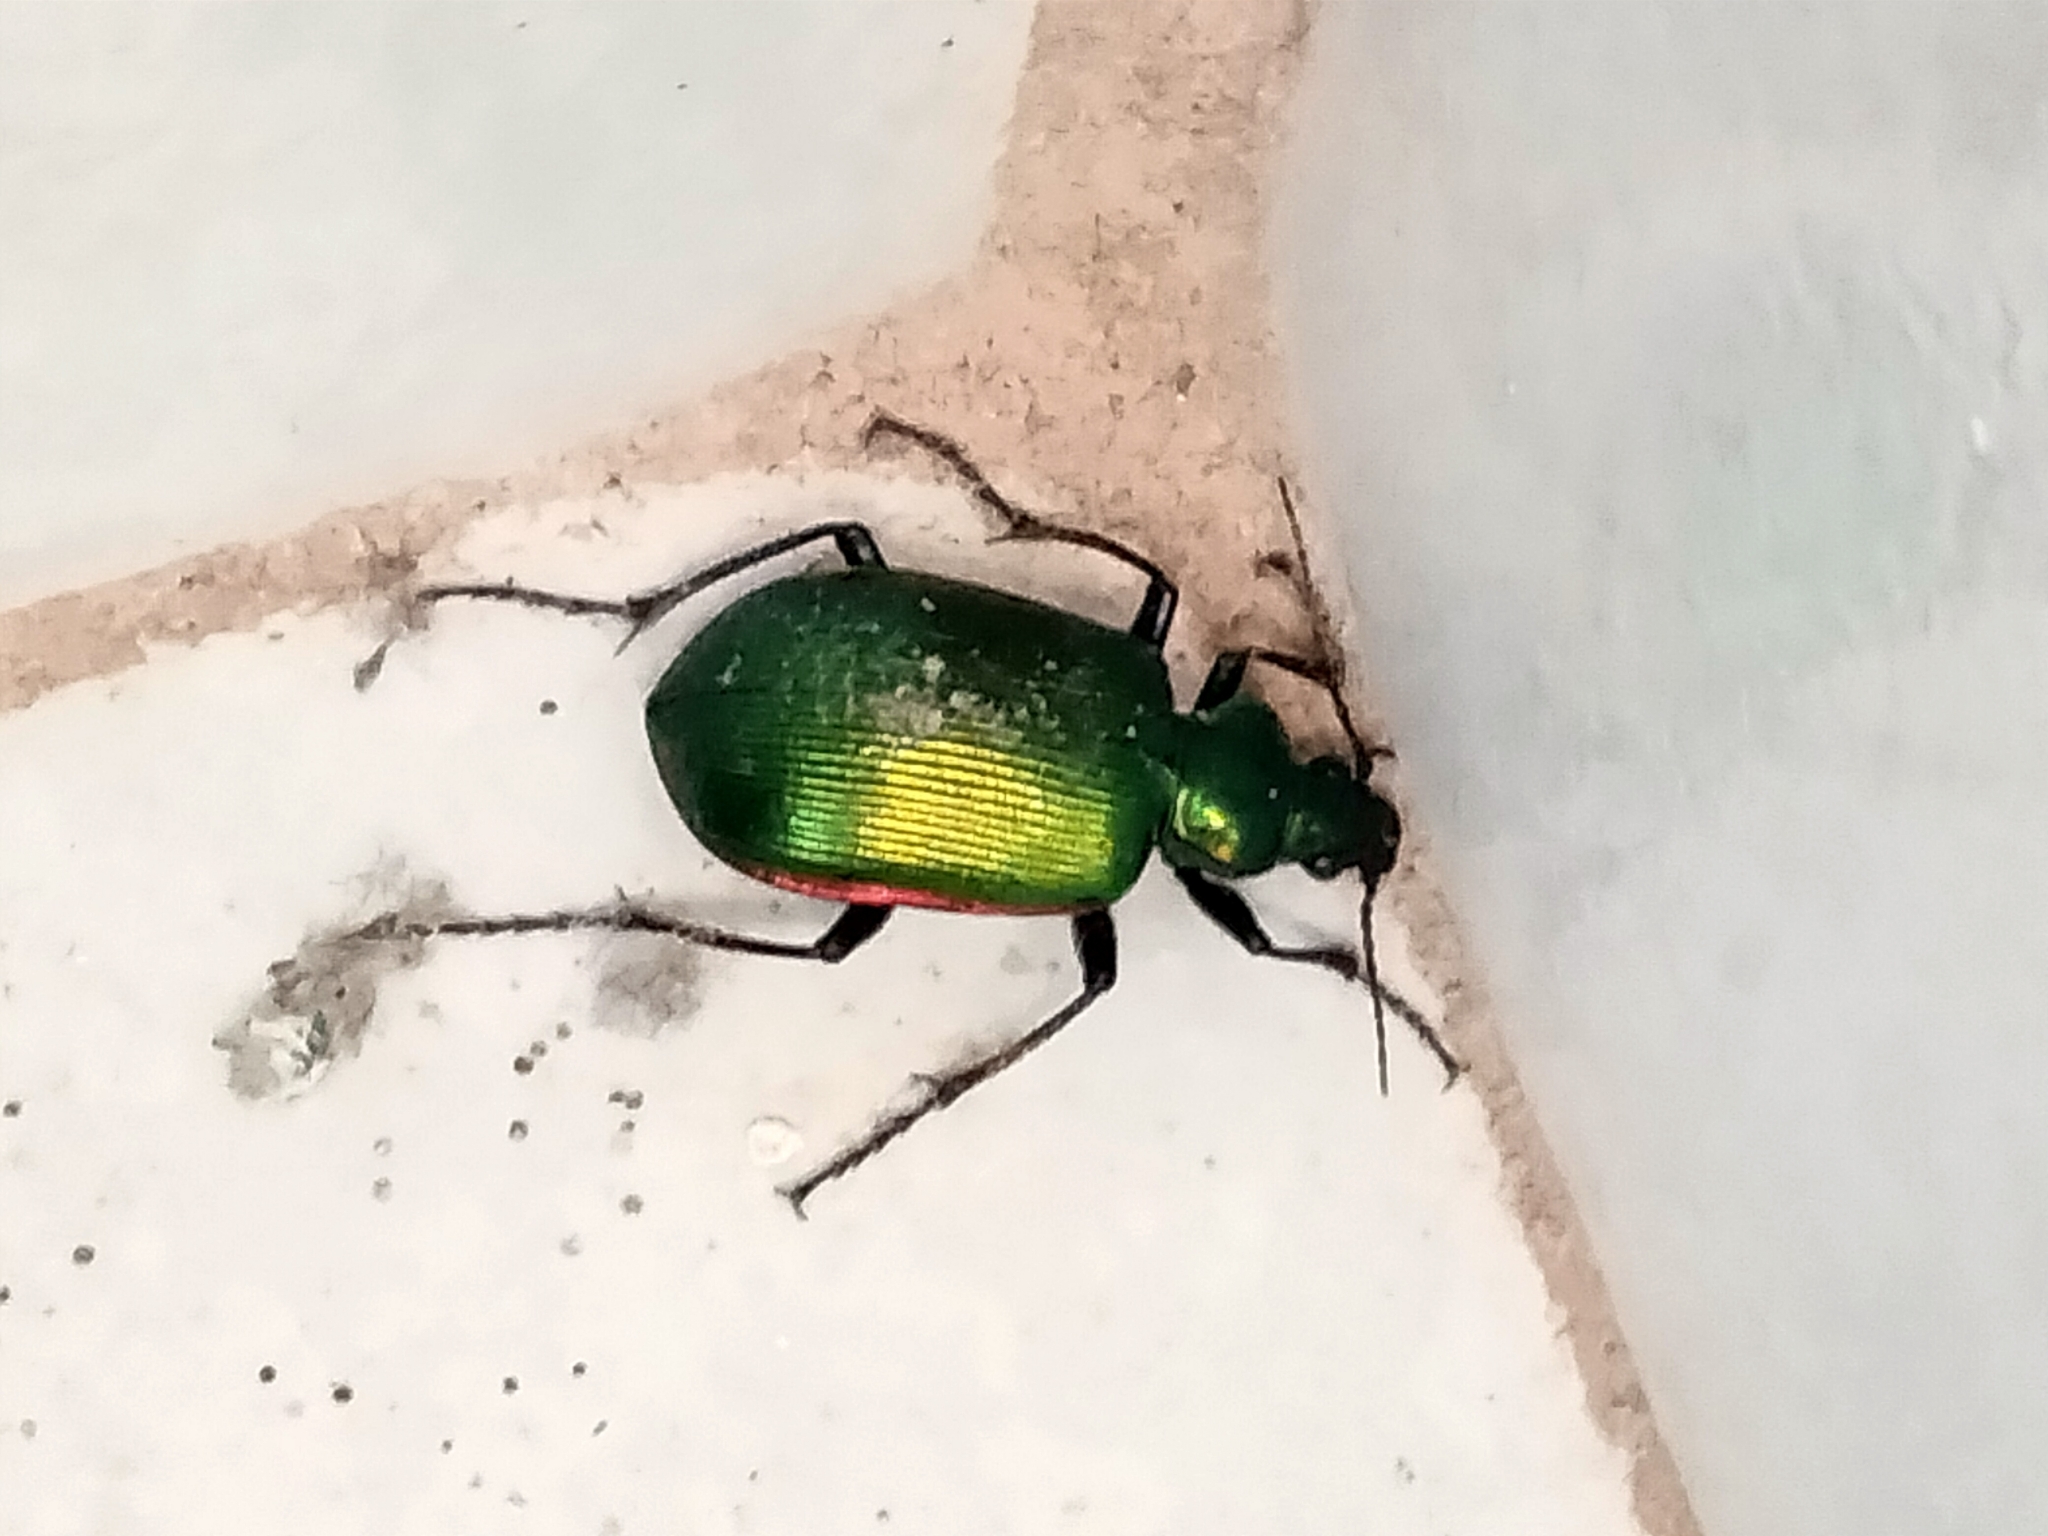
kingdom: Animalia
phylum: Arthropoda
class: Insecta
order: Coleoptera
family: Carabidae
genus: Calosoma
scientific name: Calosoma aurocinctum
